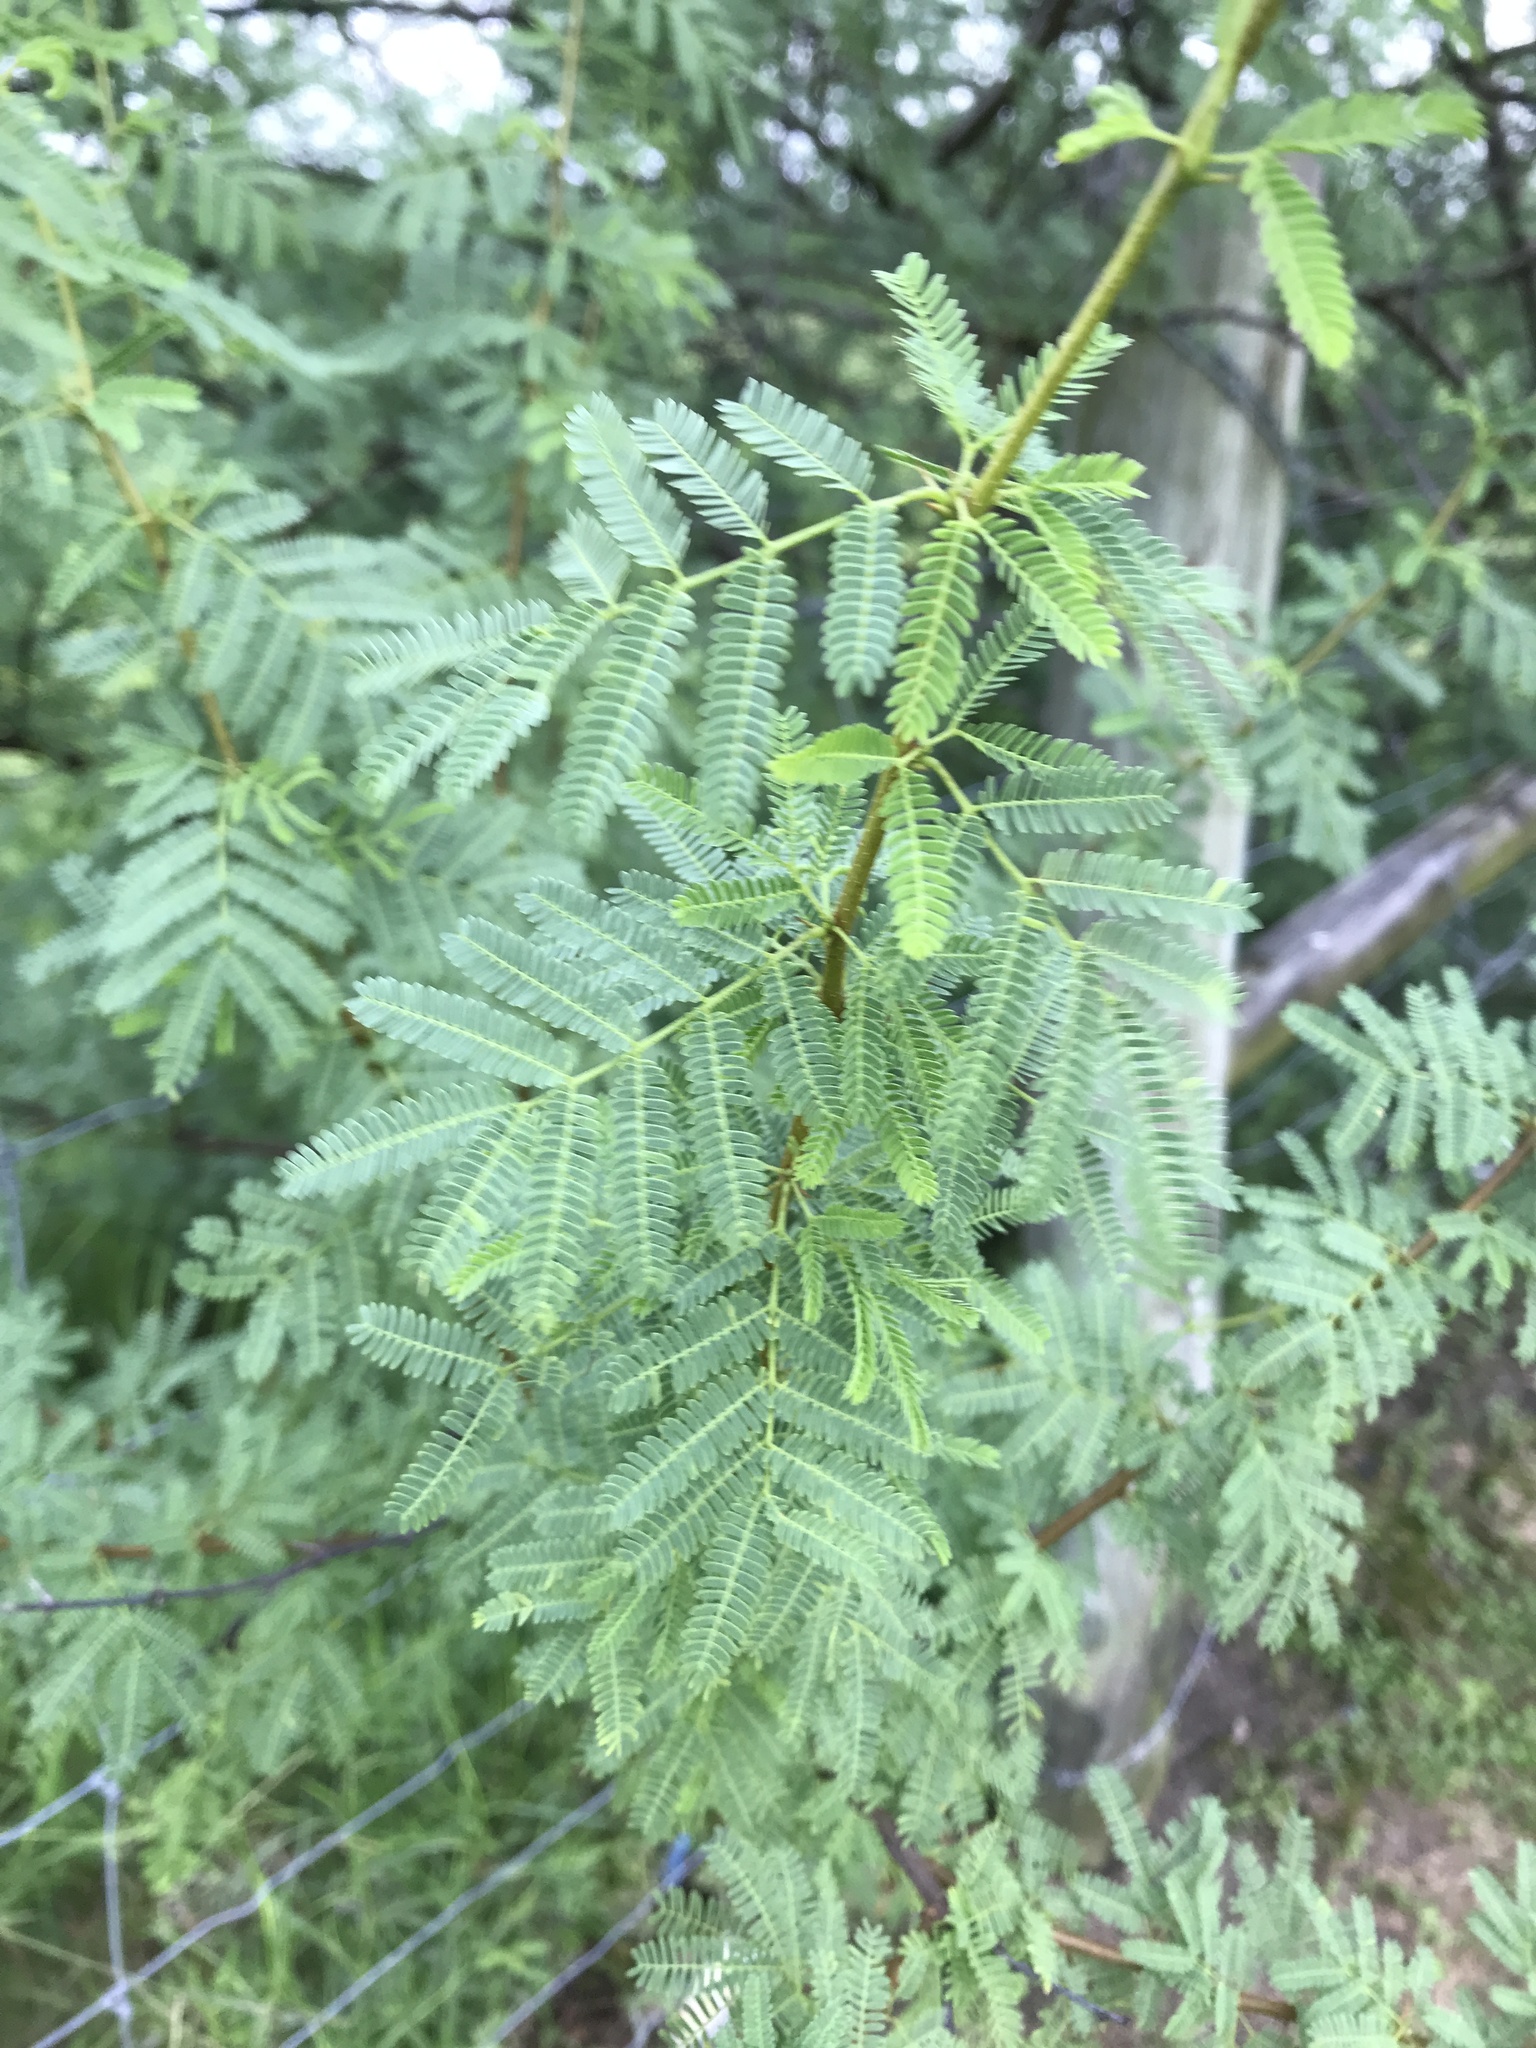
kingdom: Plantae
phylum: Tracheophyta
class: Magnoliopsida
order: Fabales
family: Fabaceae
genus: Vachellia
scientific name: Vachellia farnesiana
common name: Sweet acacia
